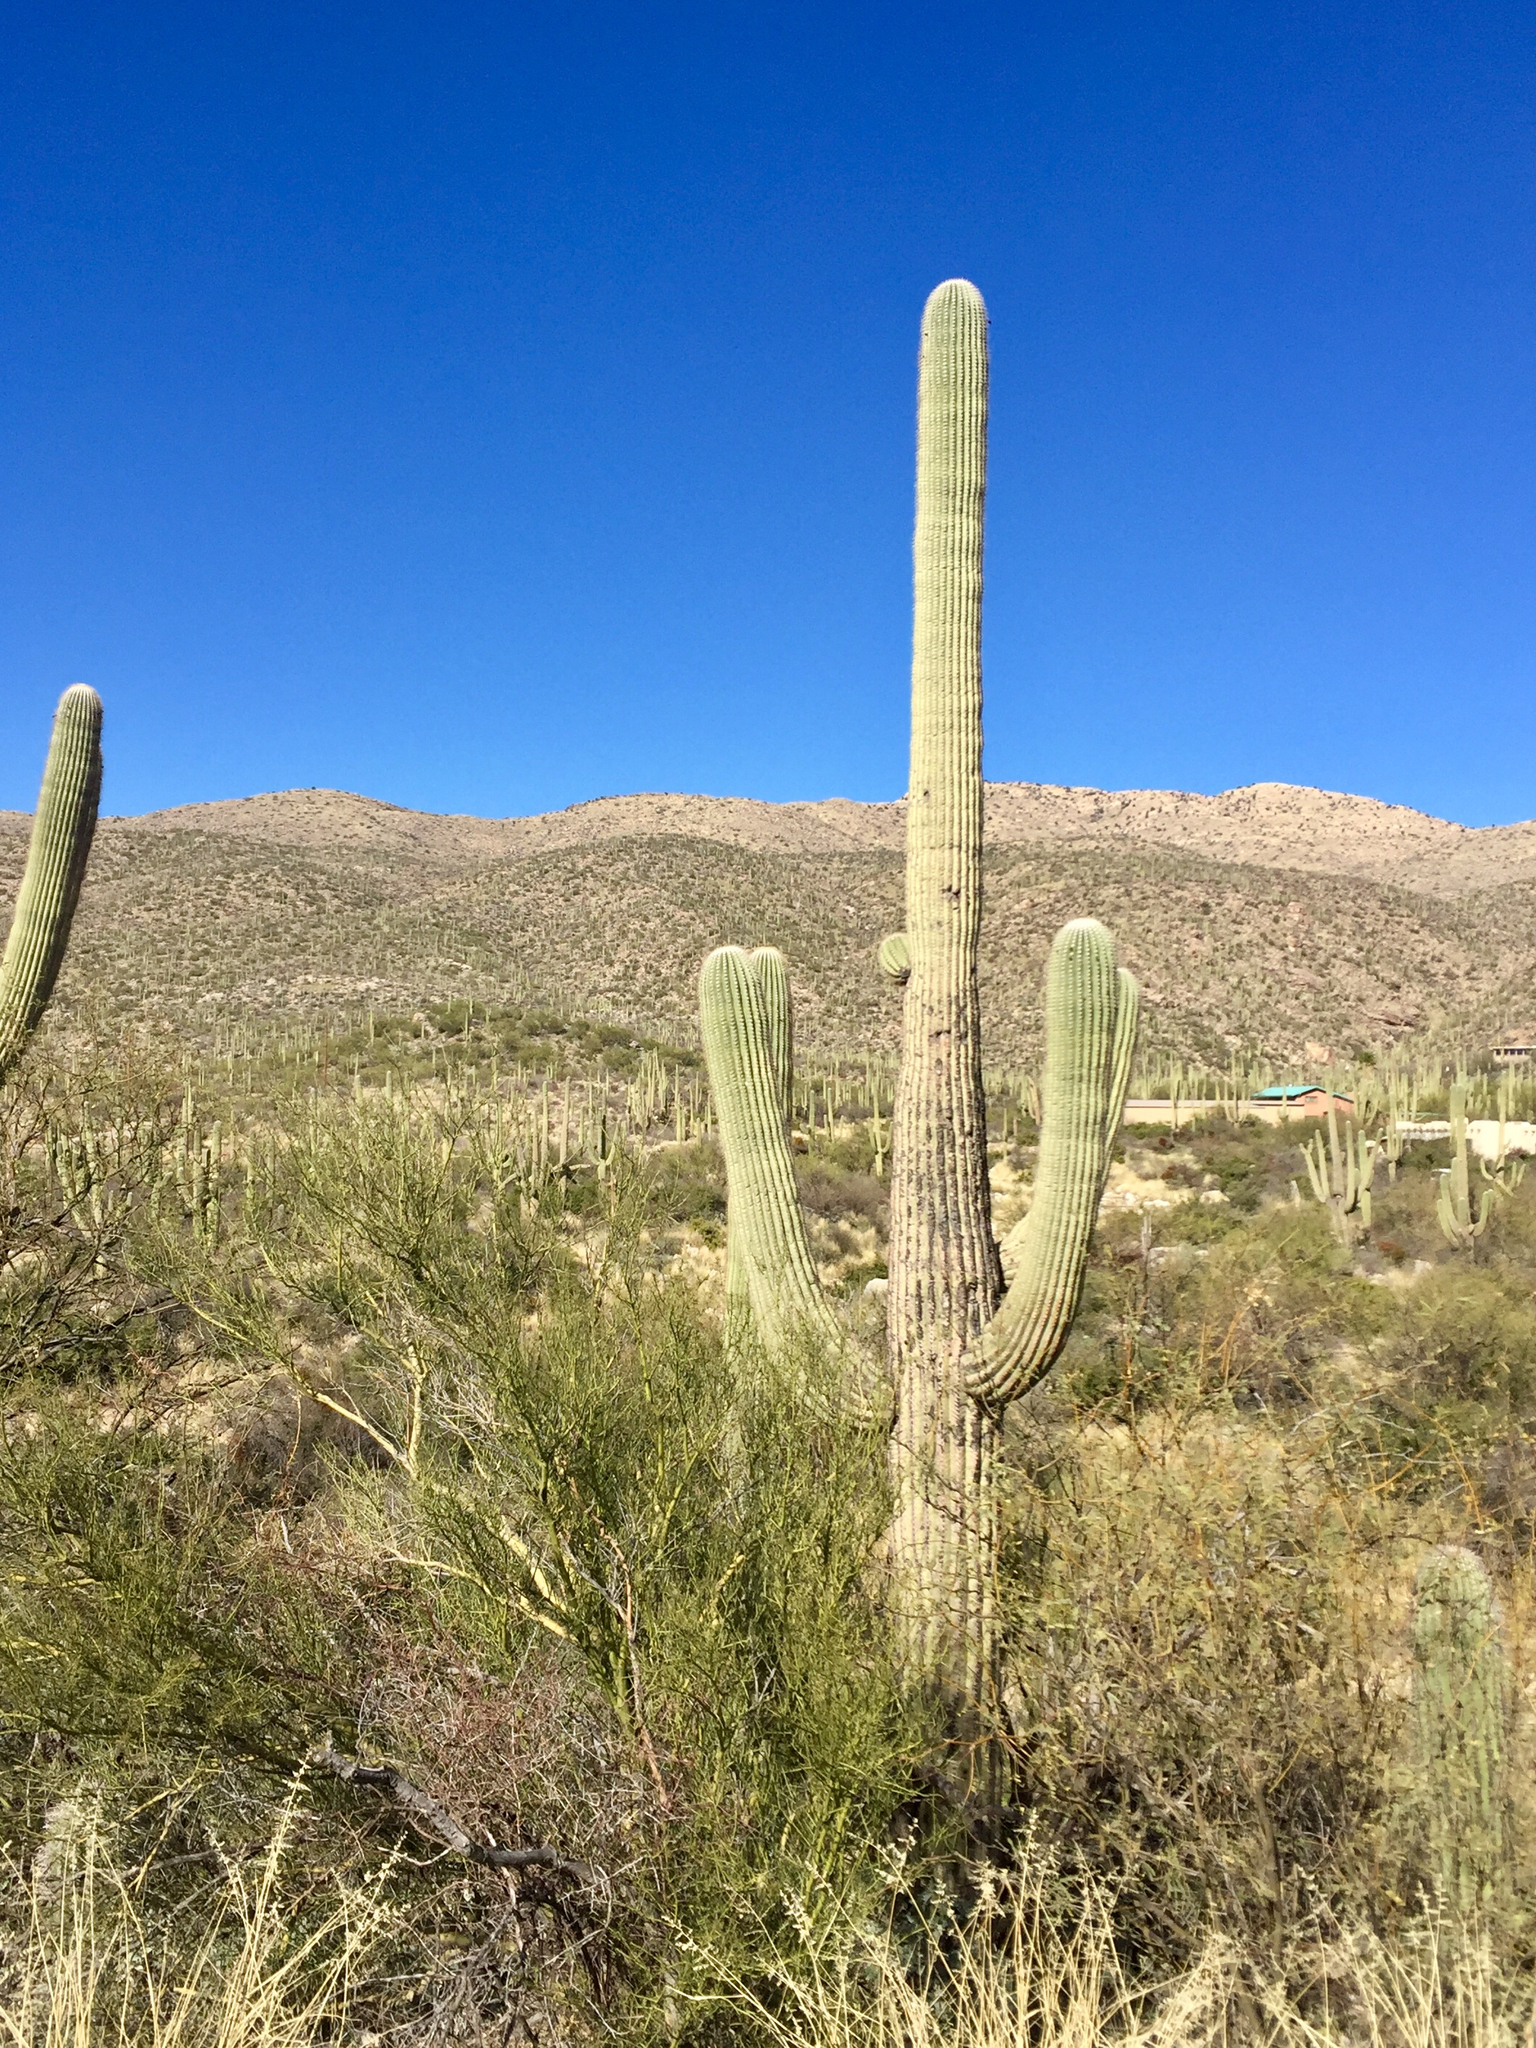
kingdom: Plantae
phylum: Tracheophyta
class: Magnoliopsida
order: Caryophyllales
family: Cactaceae
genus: Carnegiea
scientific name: Carnegiea gigantea
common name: Saguaro
